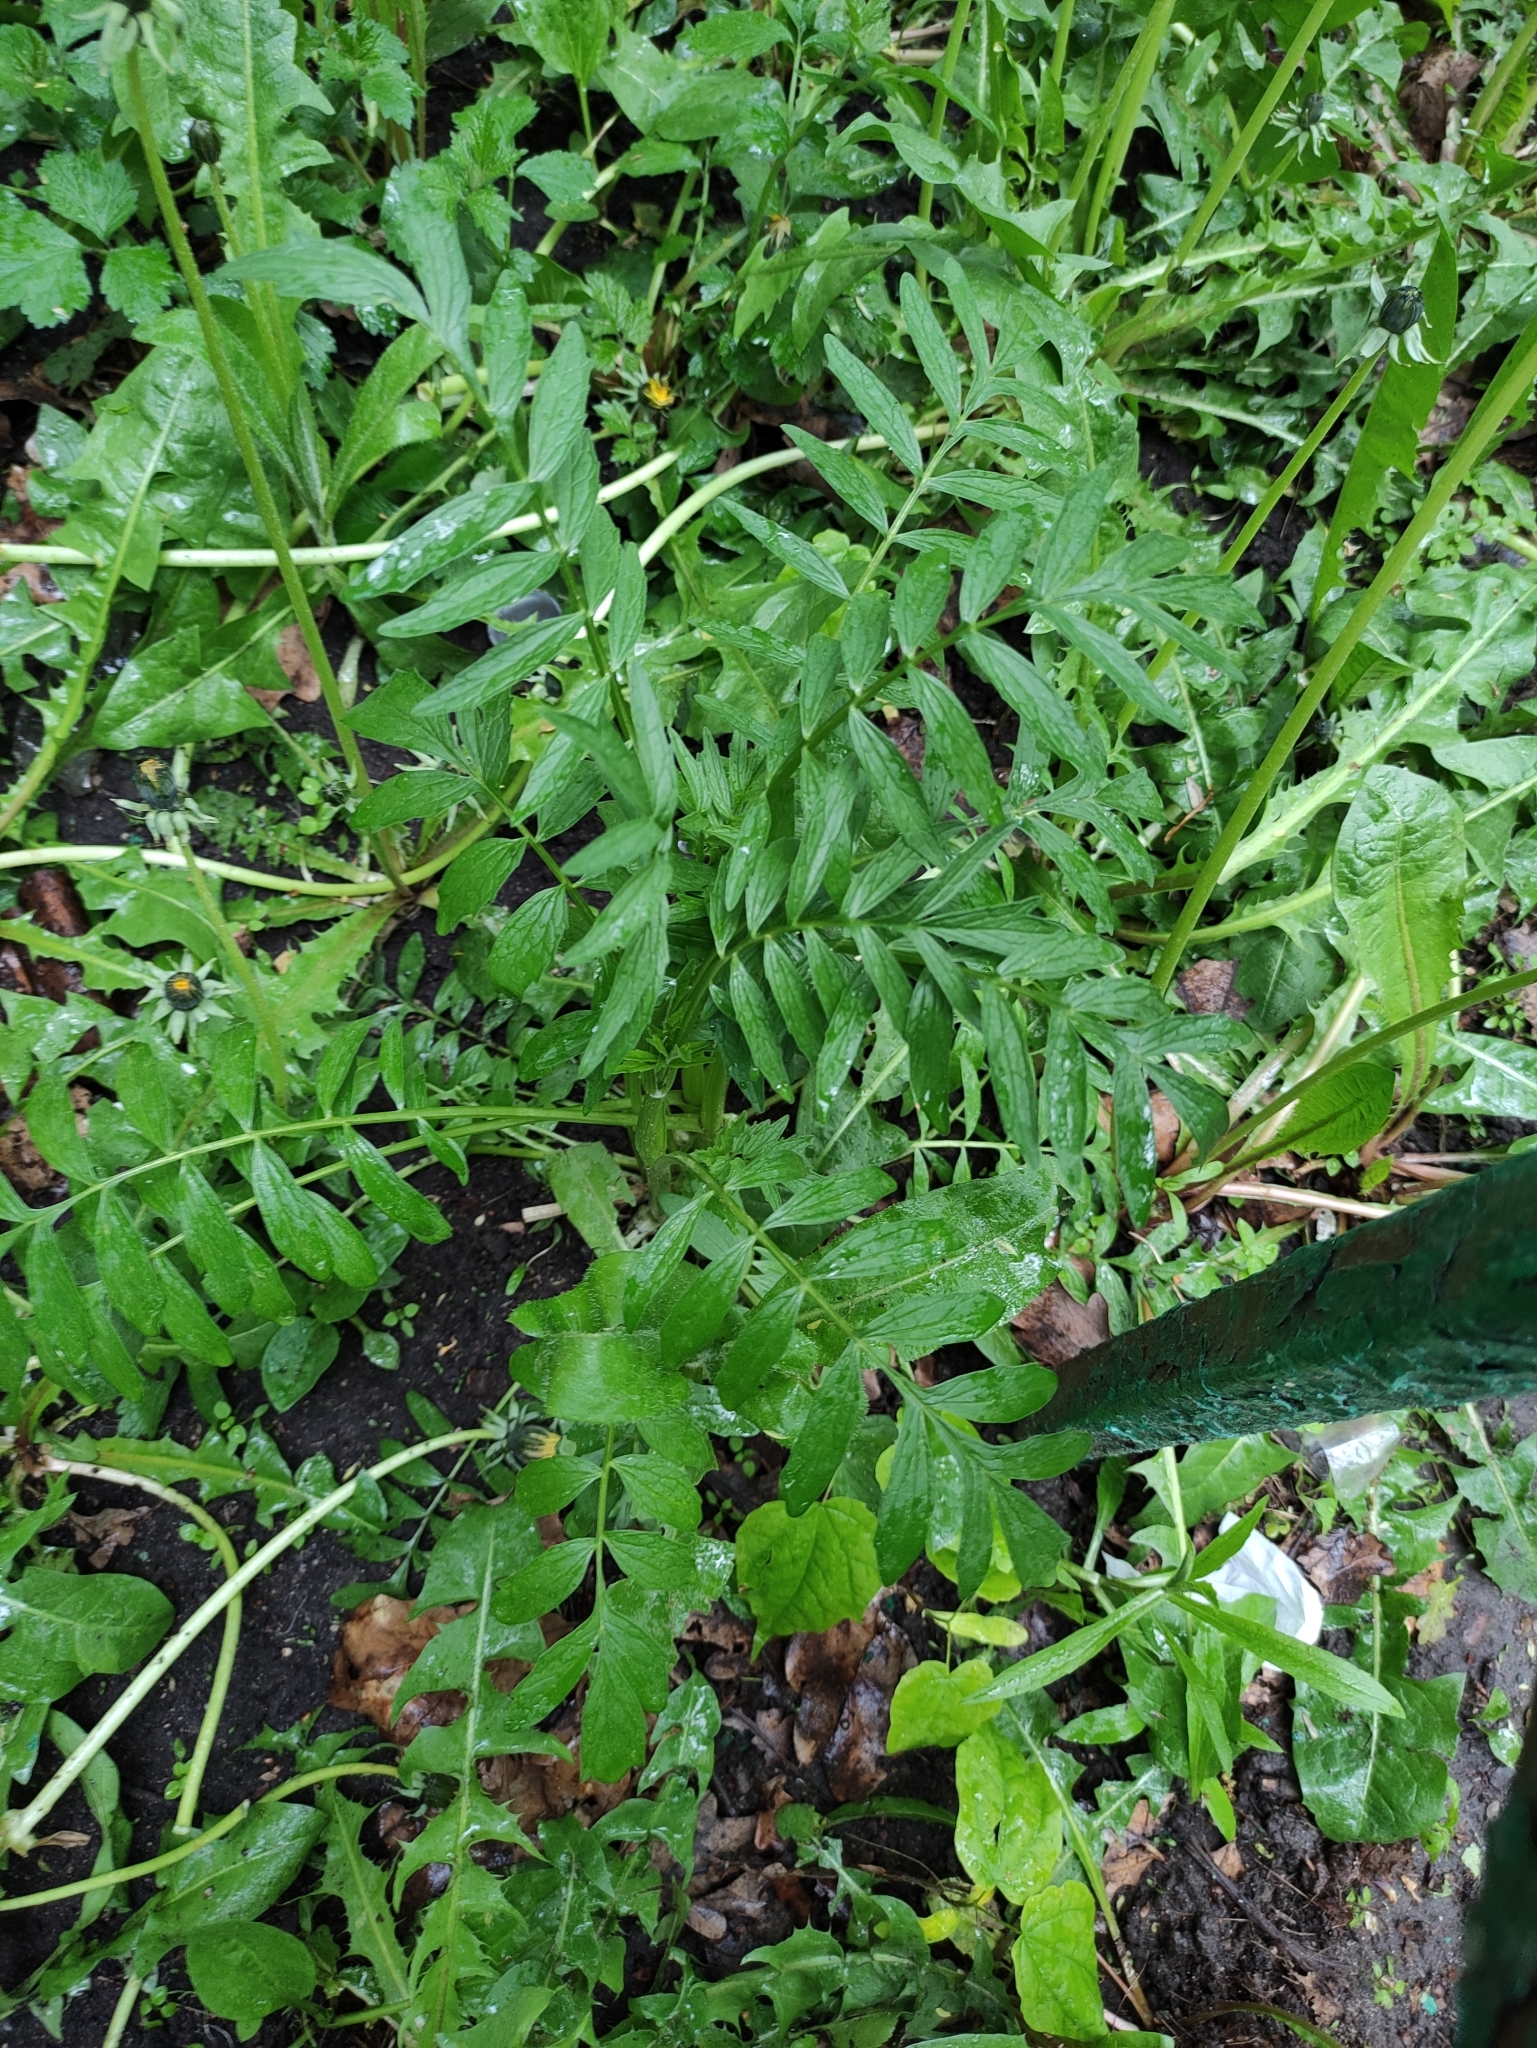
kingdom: Plantae
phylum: Tracheophyta
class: Magnoliopsida
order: Dipsacales
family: Caprifoliaceae
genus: Valeriana
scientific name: Valeriana officinalis
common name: Common valerian
